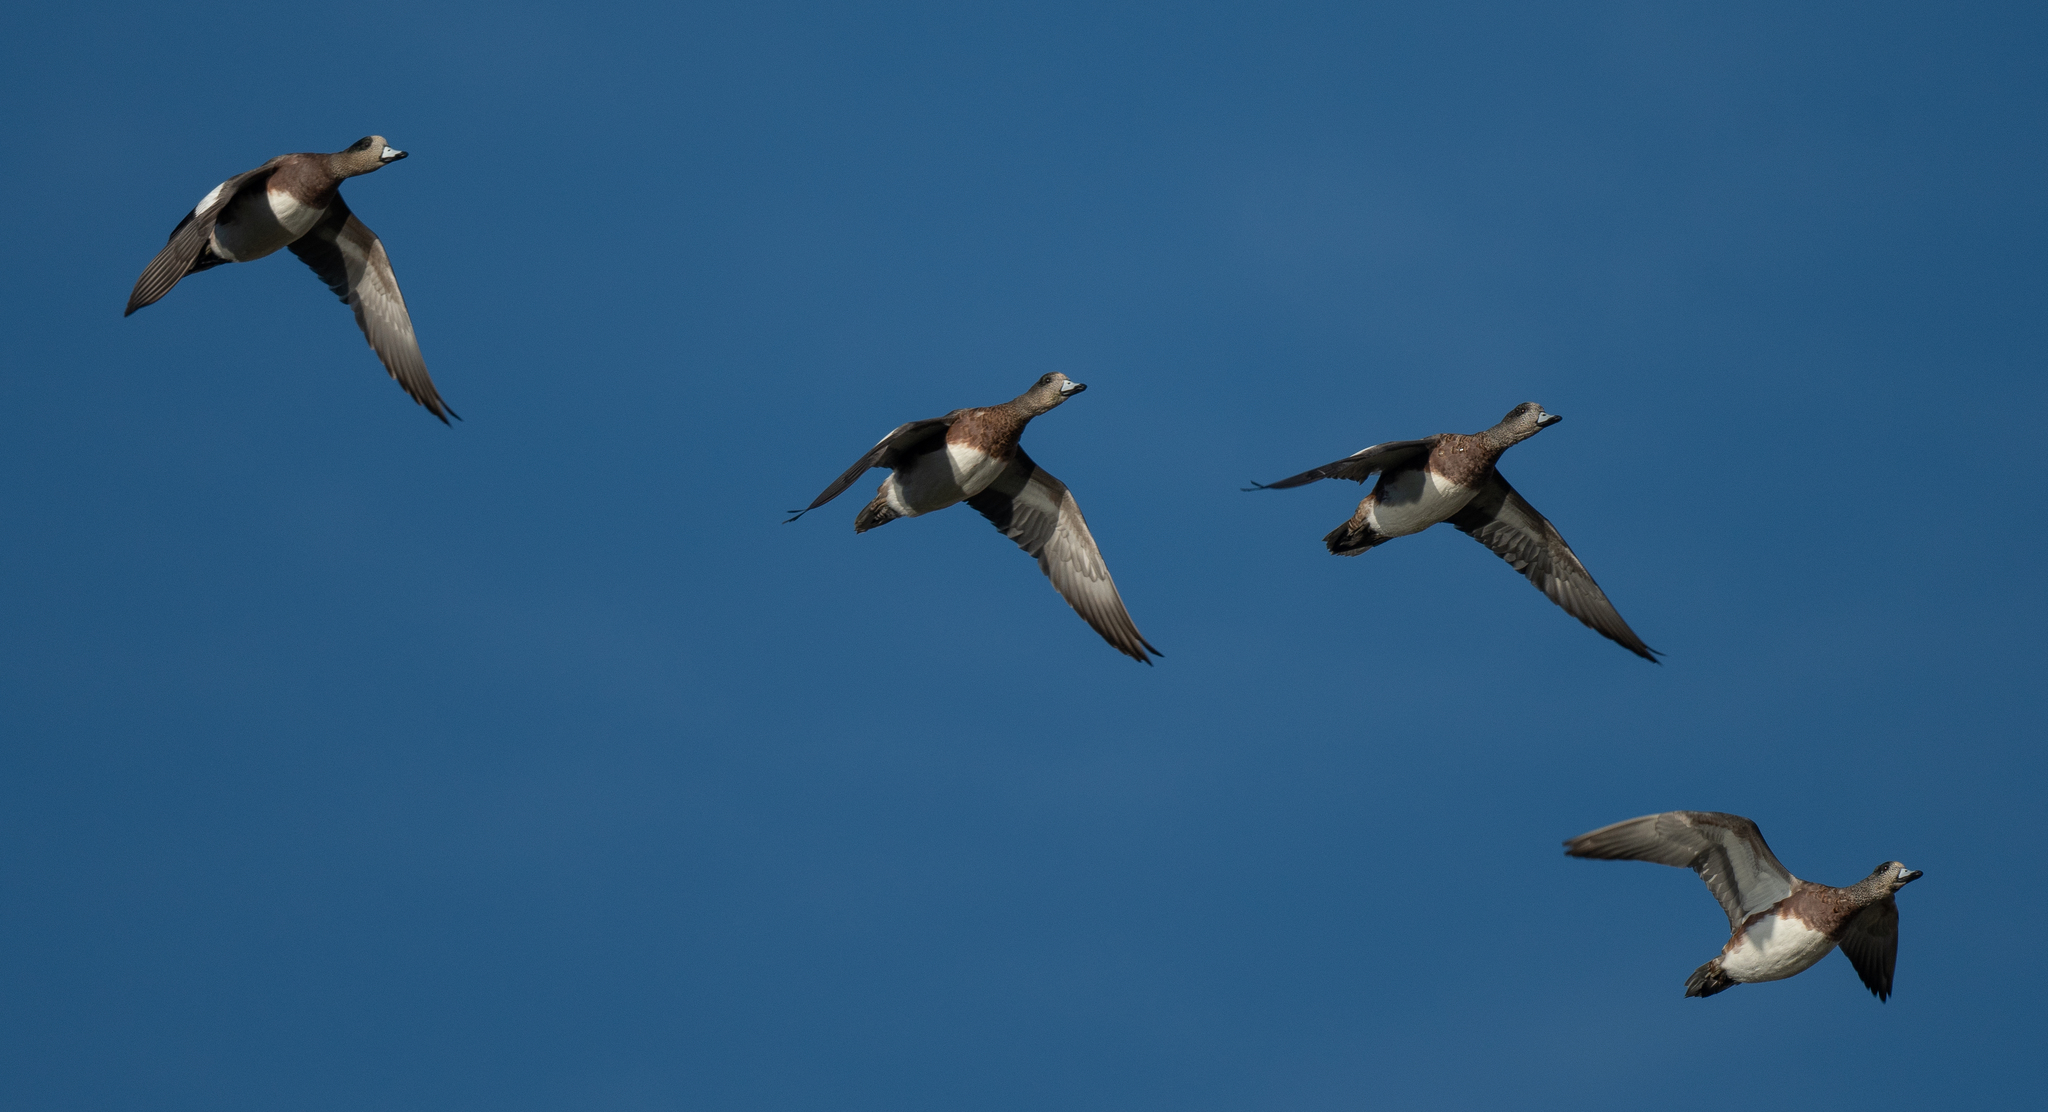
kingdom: Animalia
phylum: Chordata
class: Aves
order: Anseriformes
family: Anatidae
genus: Mareca
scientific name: Mareca americana
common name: American wigeon
